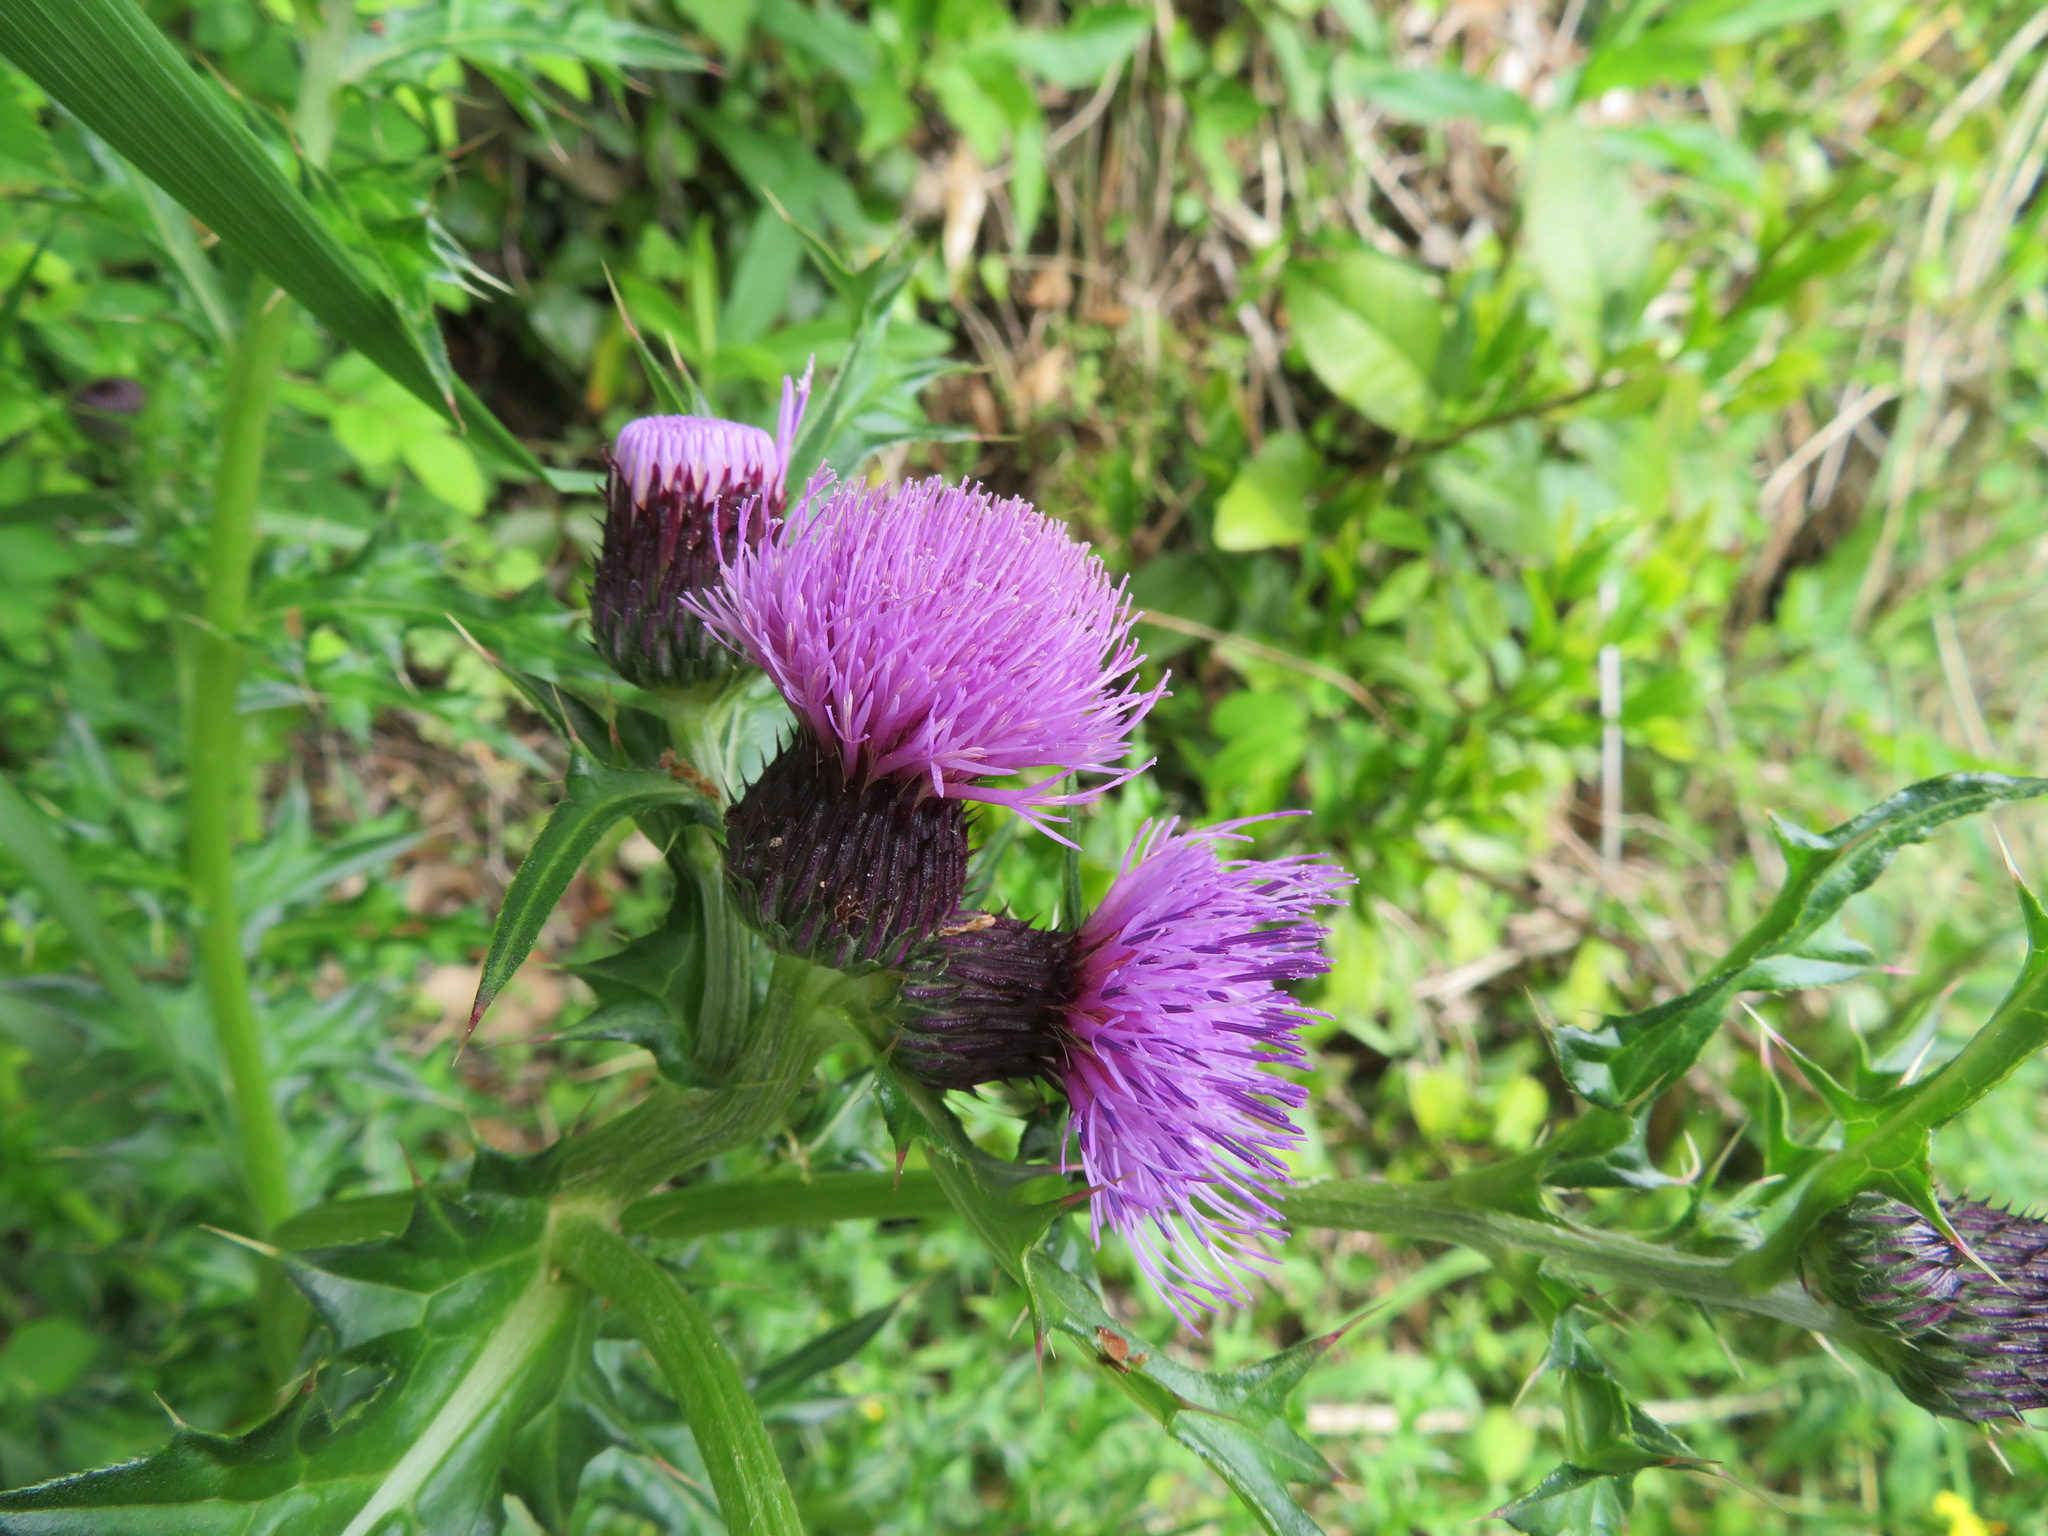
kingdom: Plantae
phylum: Tracheophyta
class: Magnoliopsida
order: Asterales
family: Asteraceae
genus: Cirsium
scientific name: Cirsium japonicum
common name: Japanese thistle
